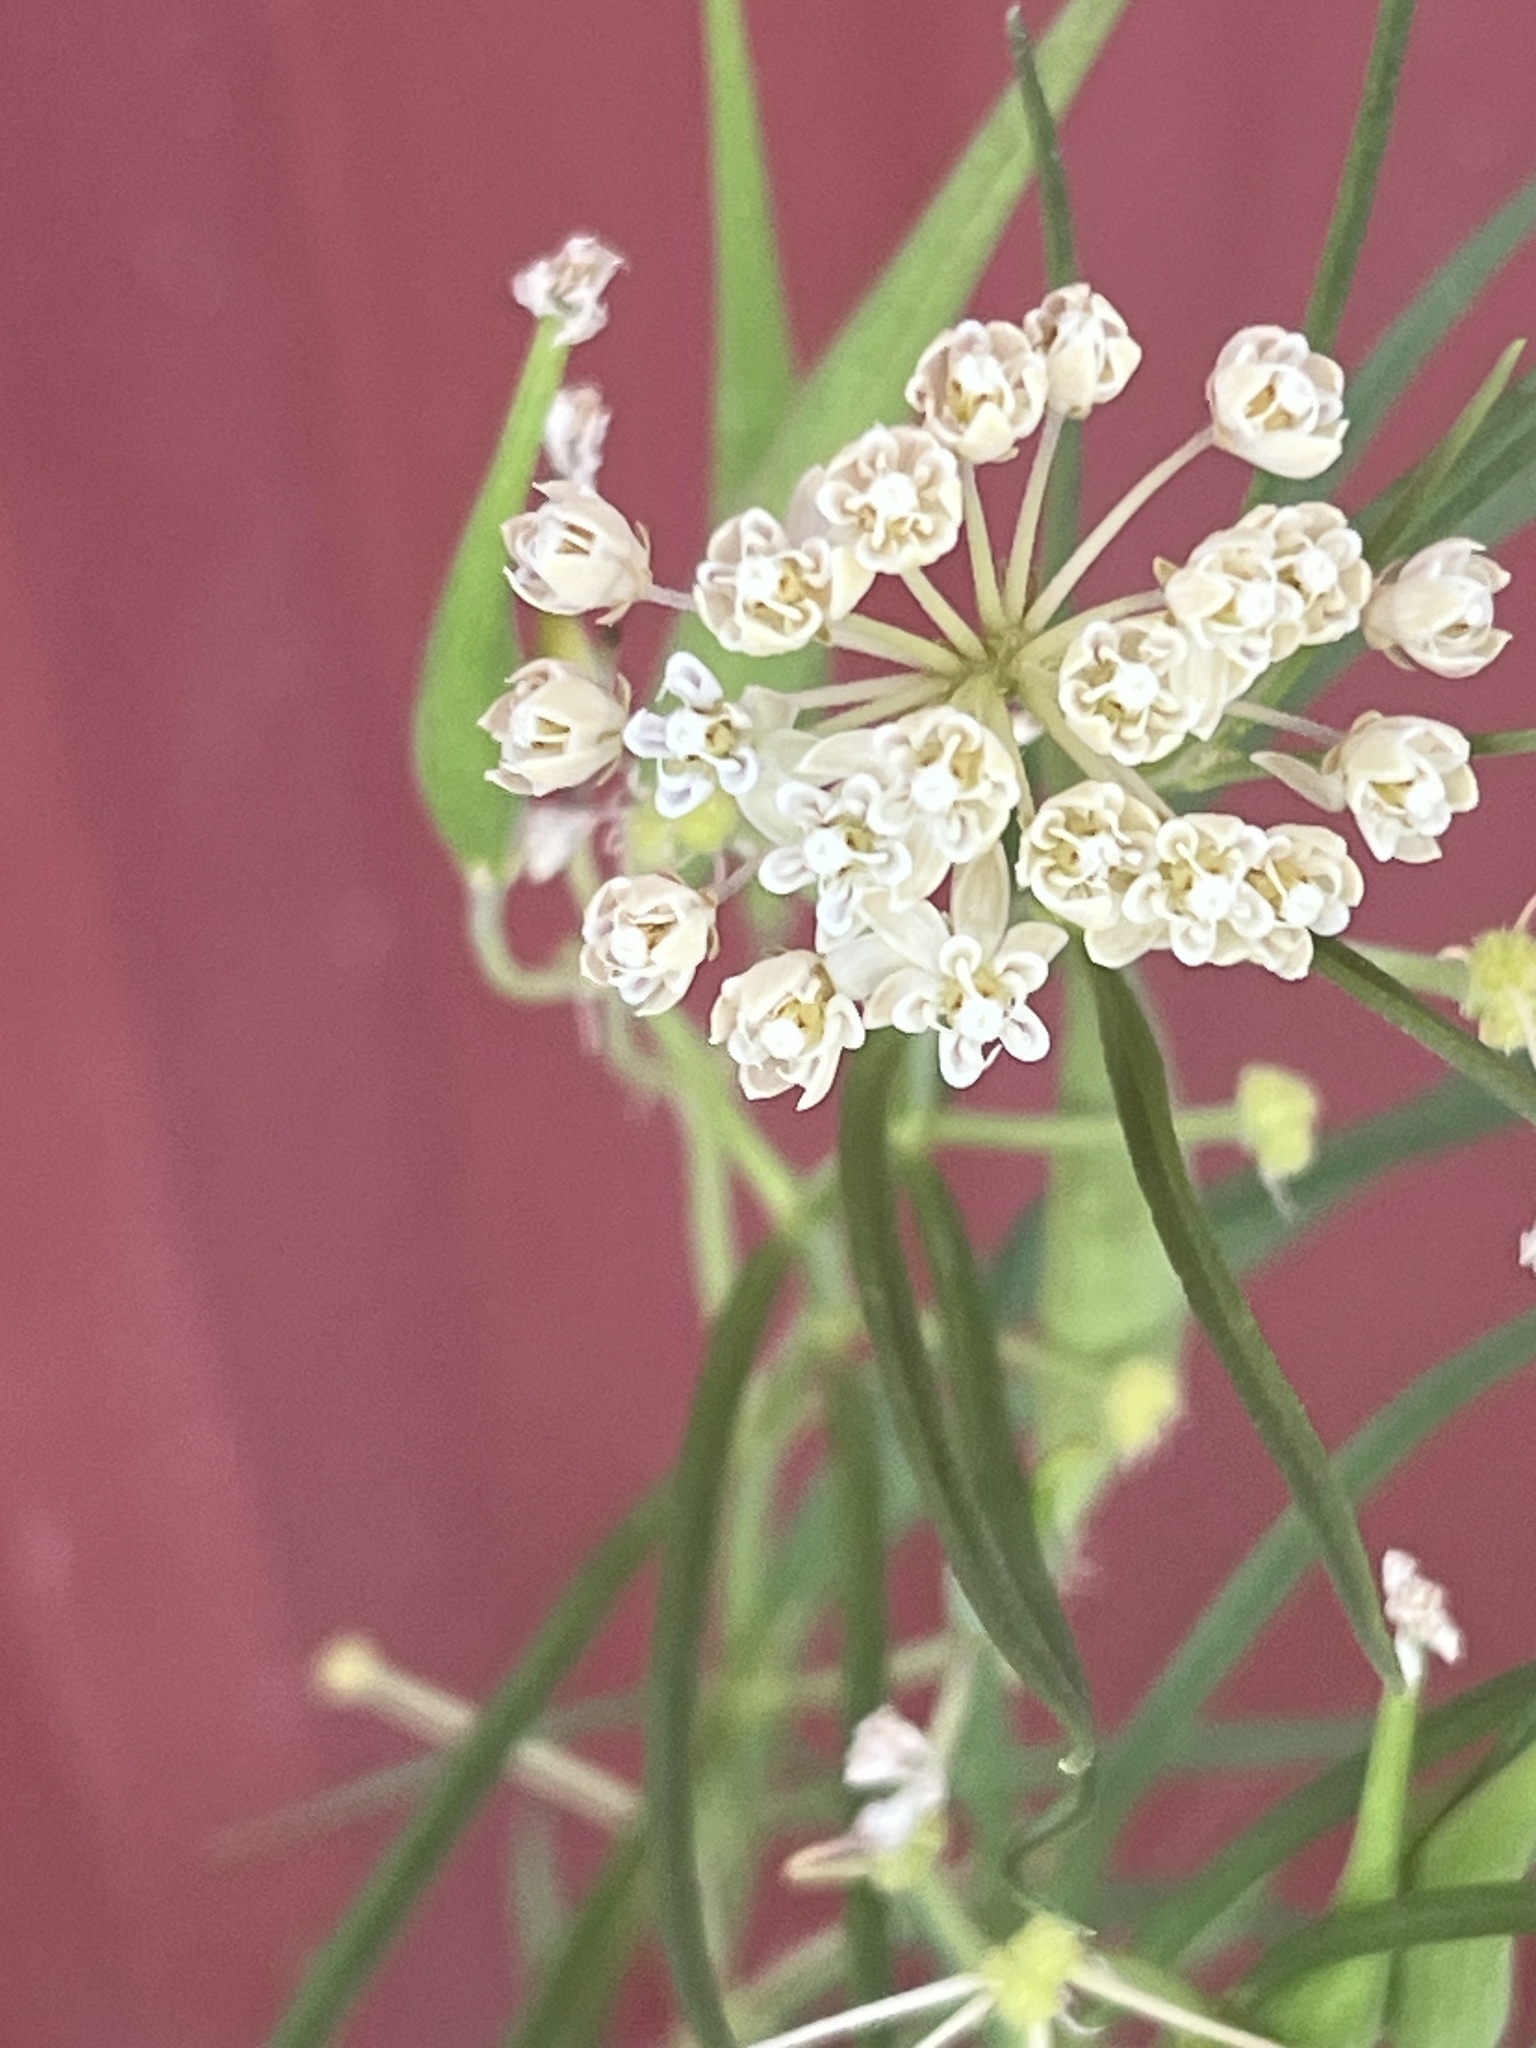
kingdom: Plantae
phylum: Tracheophyta
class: Magnoliopsida
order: Gentianales
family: Apocynaceae
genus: Asclepias
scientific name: Asclepias subverticillata
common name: Horsetail milkweed
